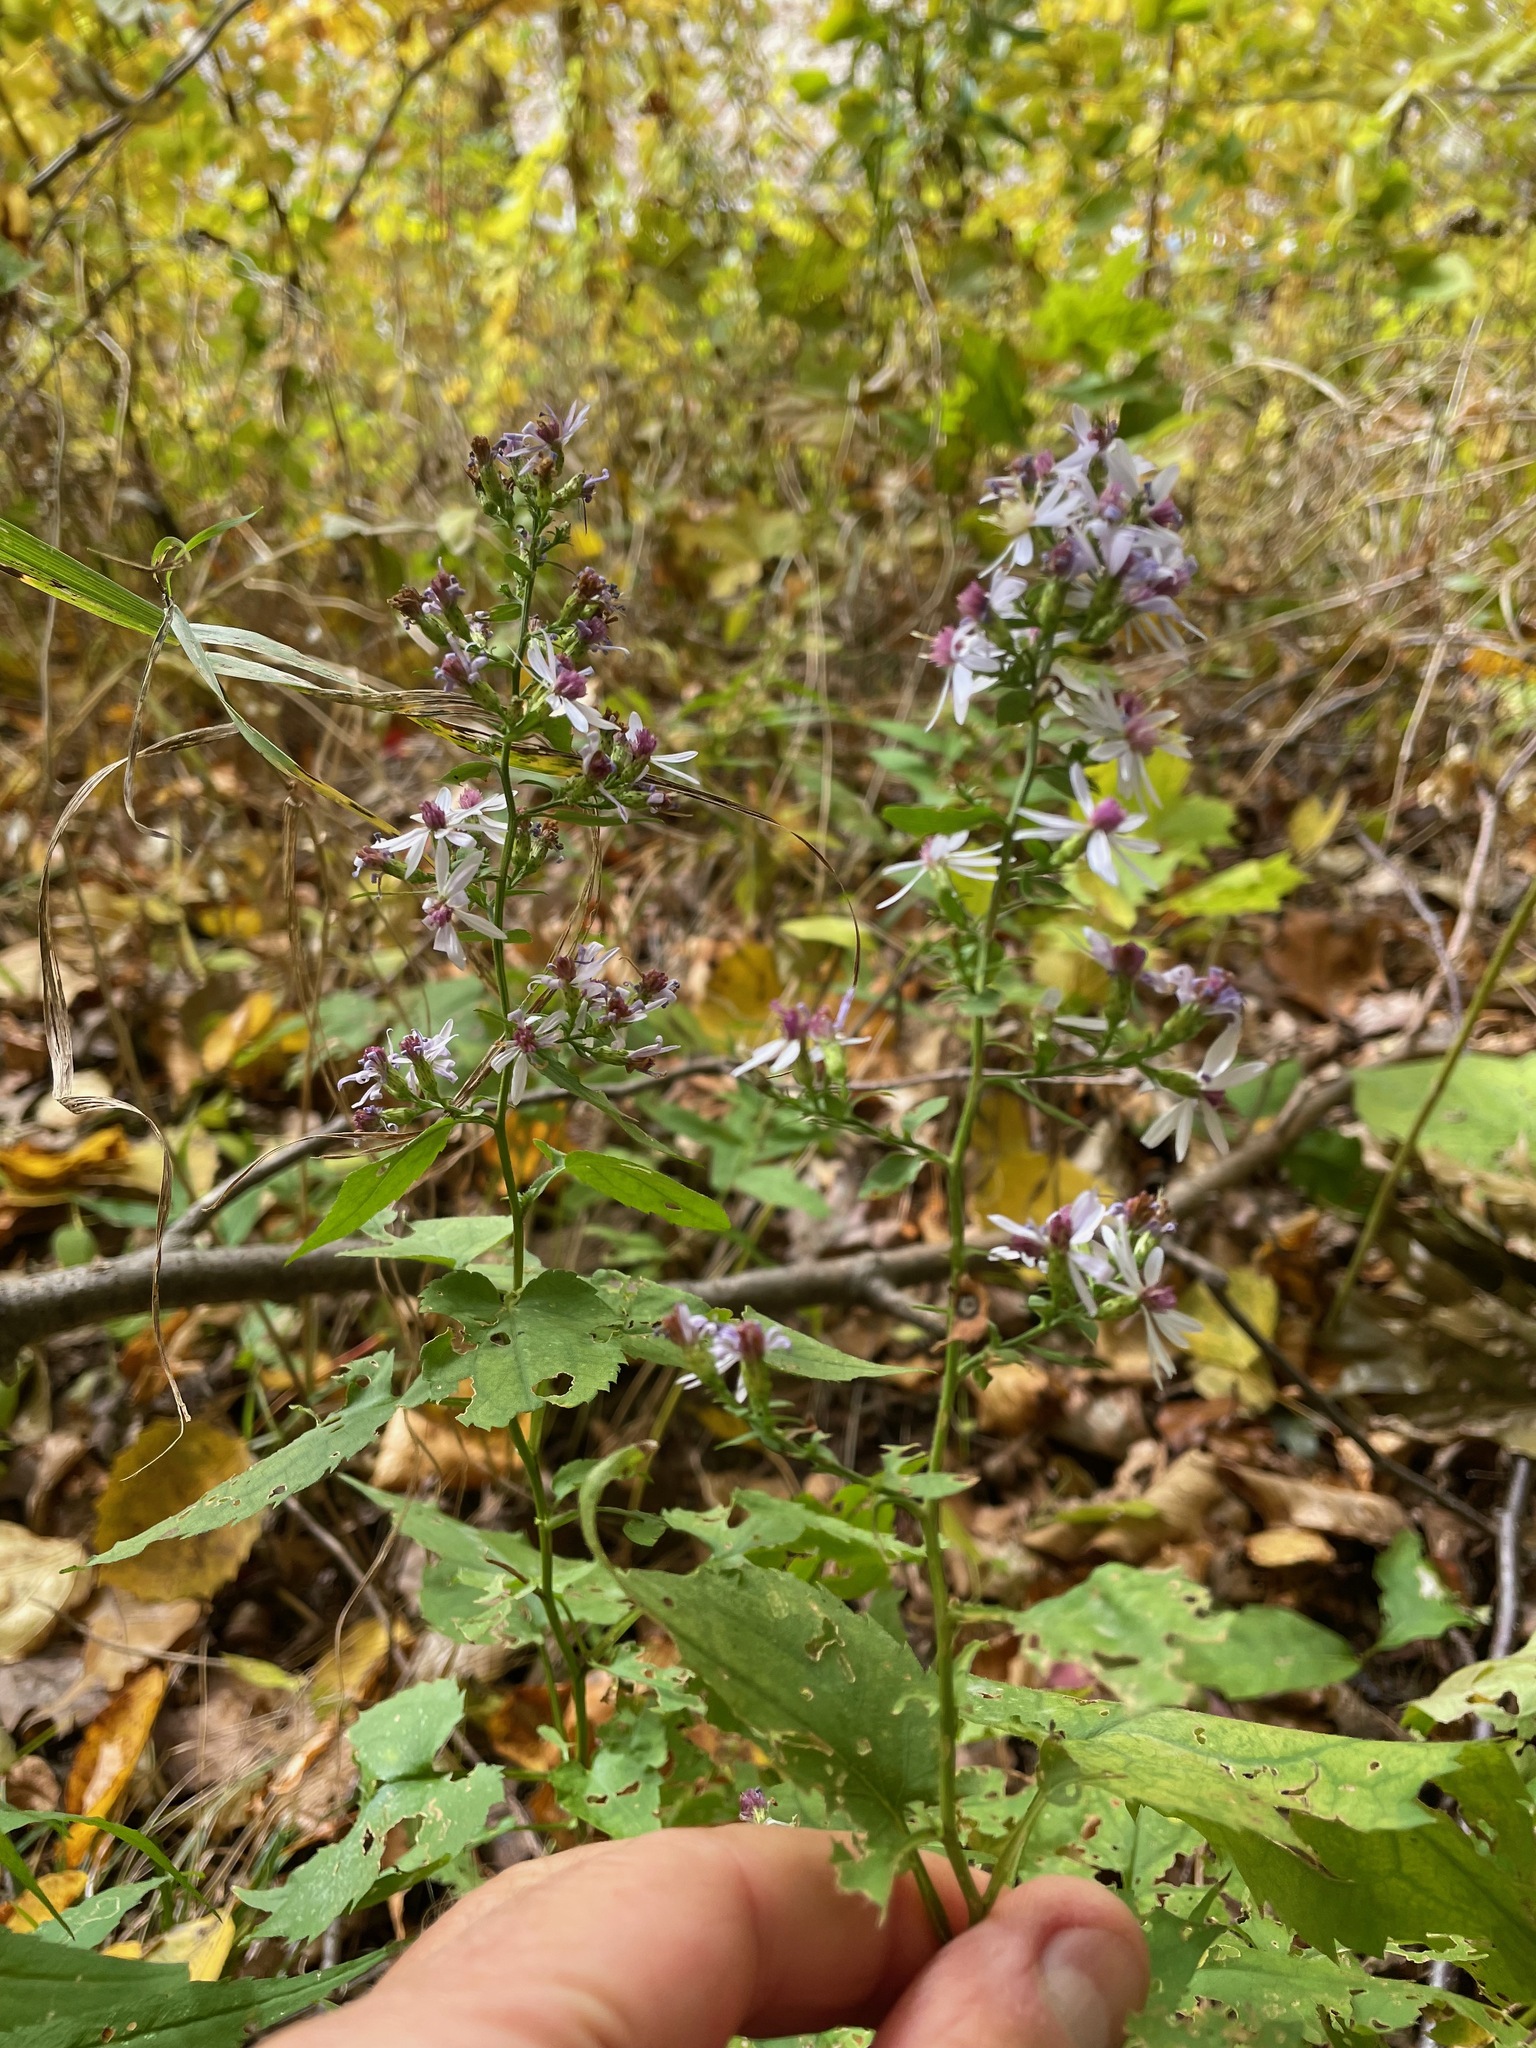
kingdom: Plantae
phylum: Tracheophyta
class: Magnoliopsida
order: Asterales
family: Asteraceae
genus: Symphyotrichum
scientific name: Symphyotrichum cordifolium
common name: Beeweed
